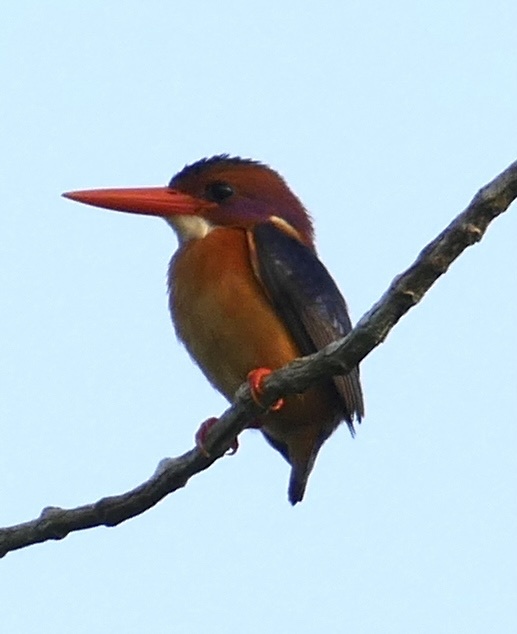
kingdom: Animalia
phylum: Chordata
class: Aves
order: Coraciiformes
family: Alcedinidae
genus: Ispidina
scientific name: Ispidina picta
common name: African pygmy-kingfisher
